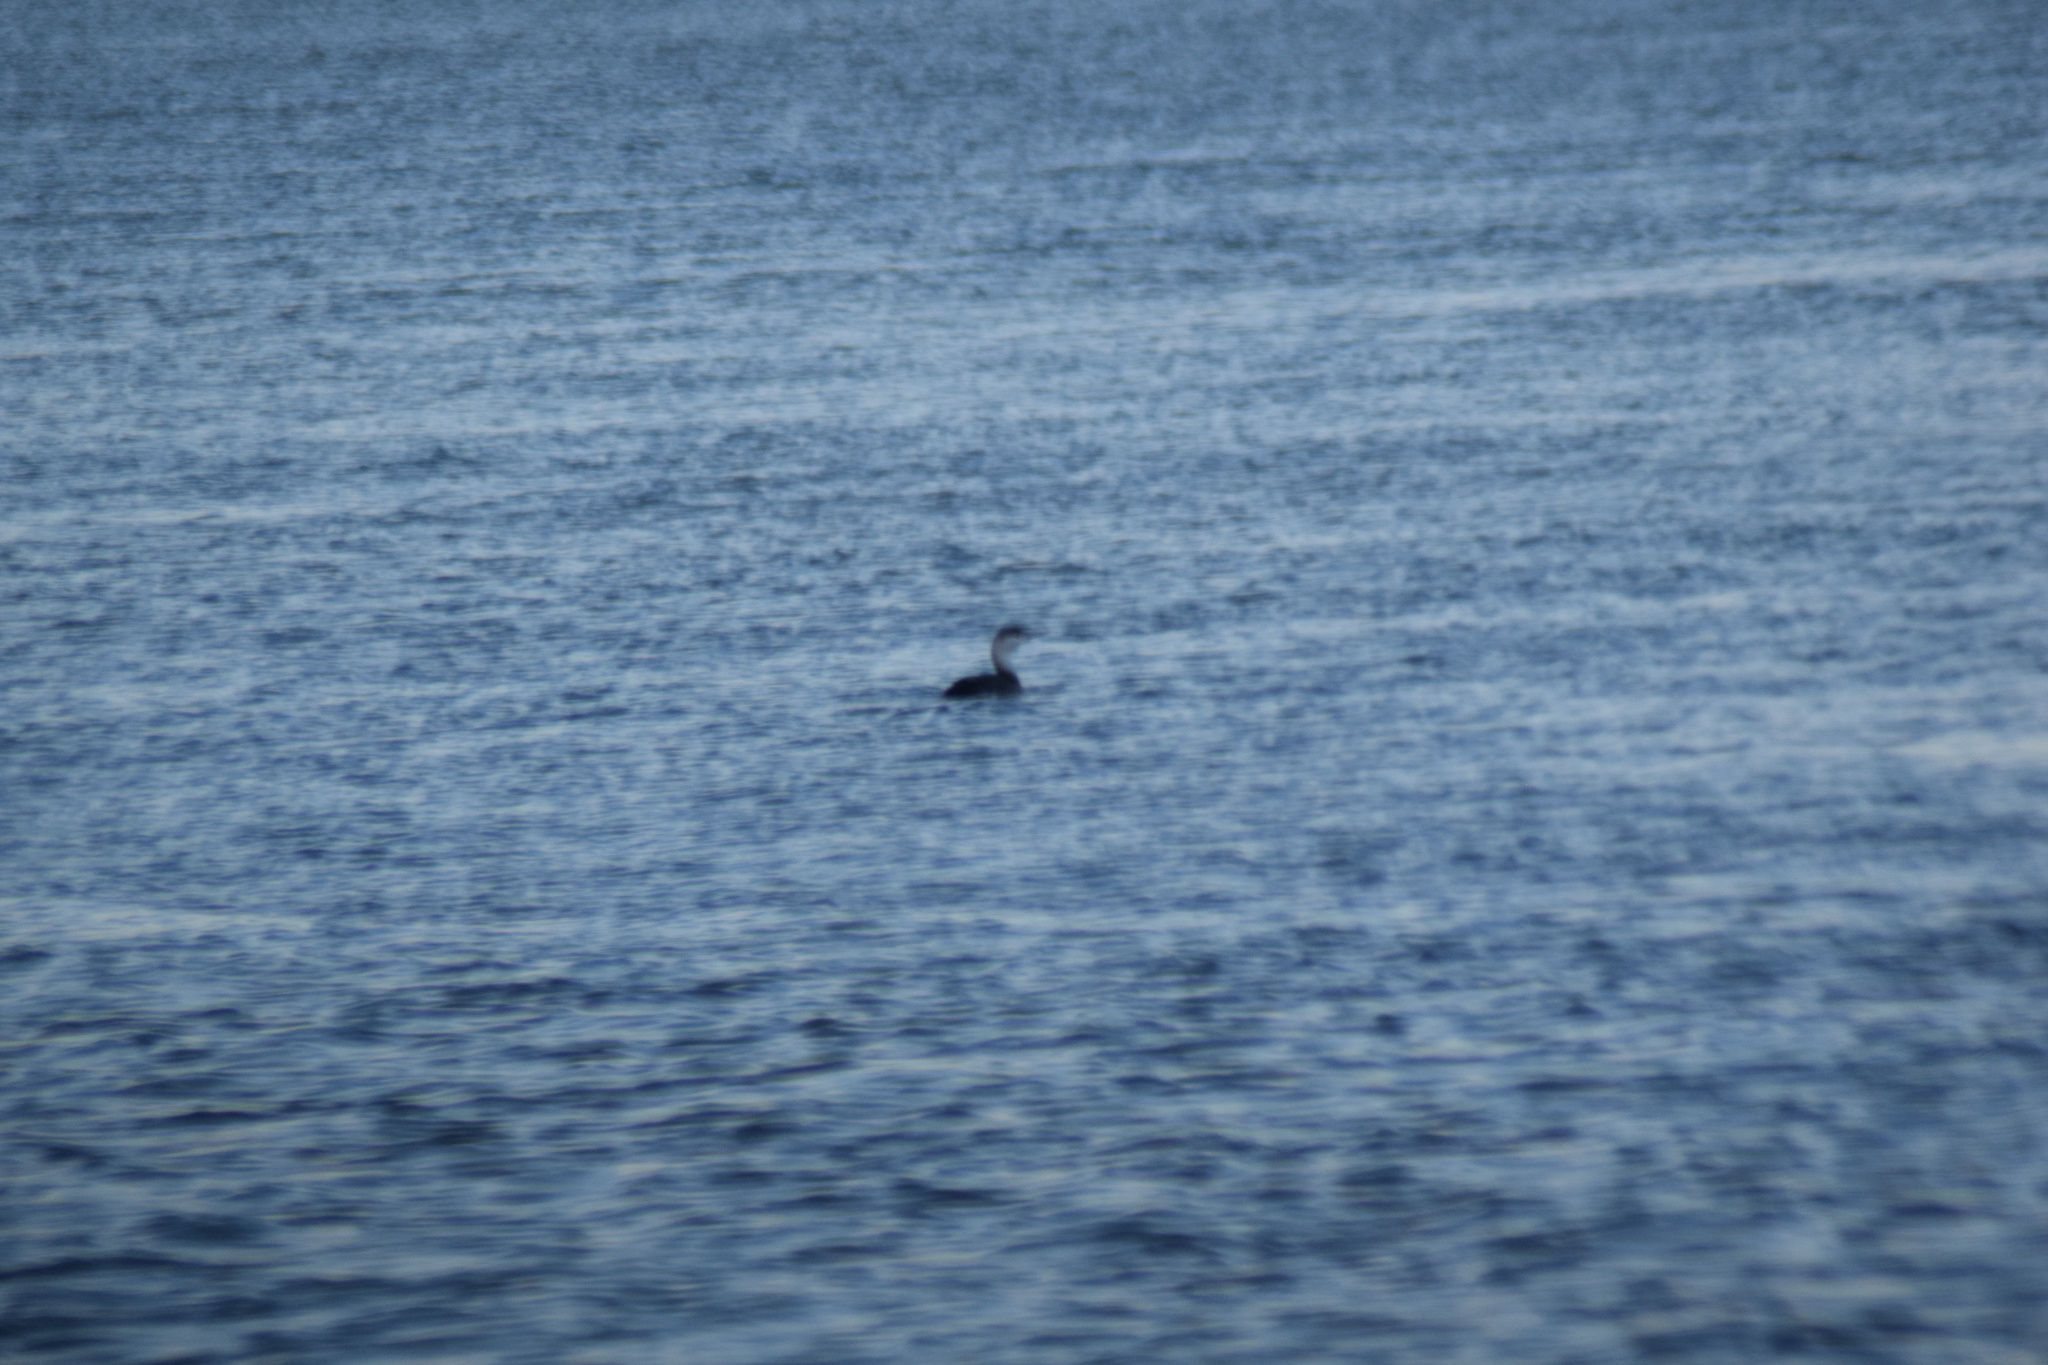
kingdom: Animalia
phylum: Chordata
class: Aves
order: Gaviiformes
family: Gaviidae
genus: Gavia
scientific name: Gavia stellata
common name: Red-throated loon
